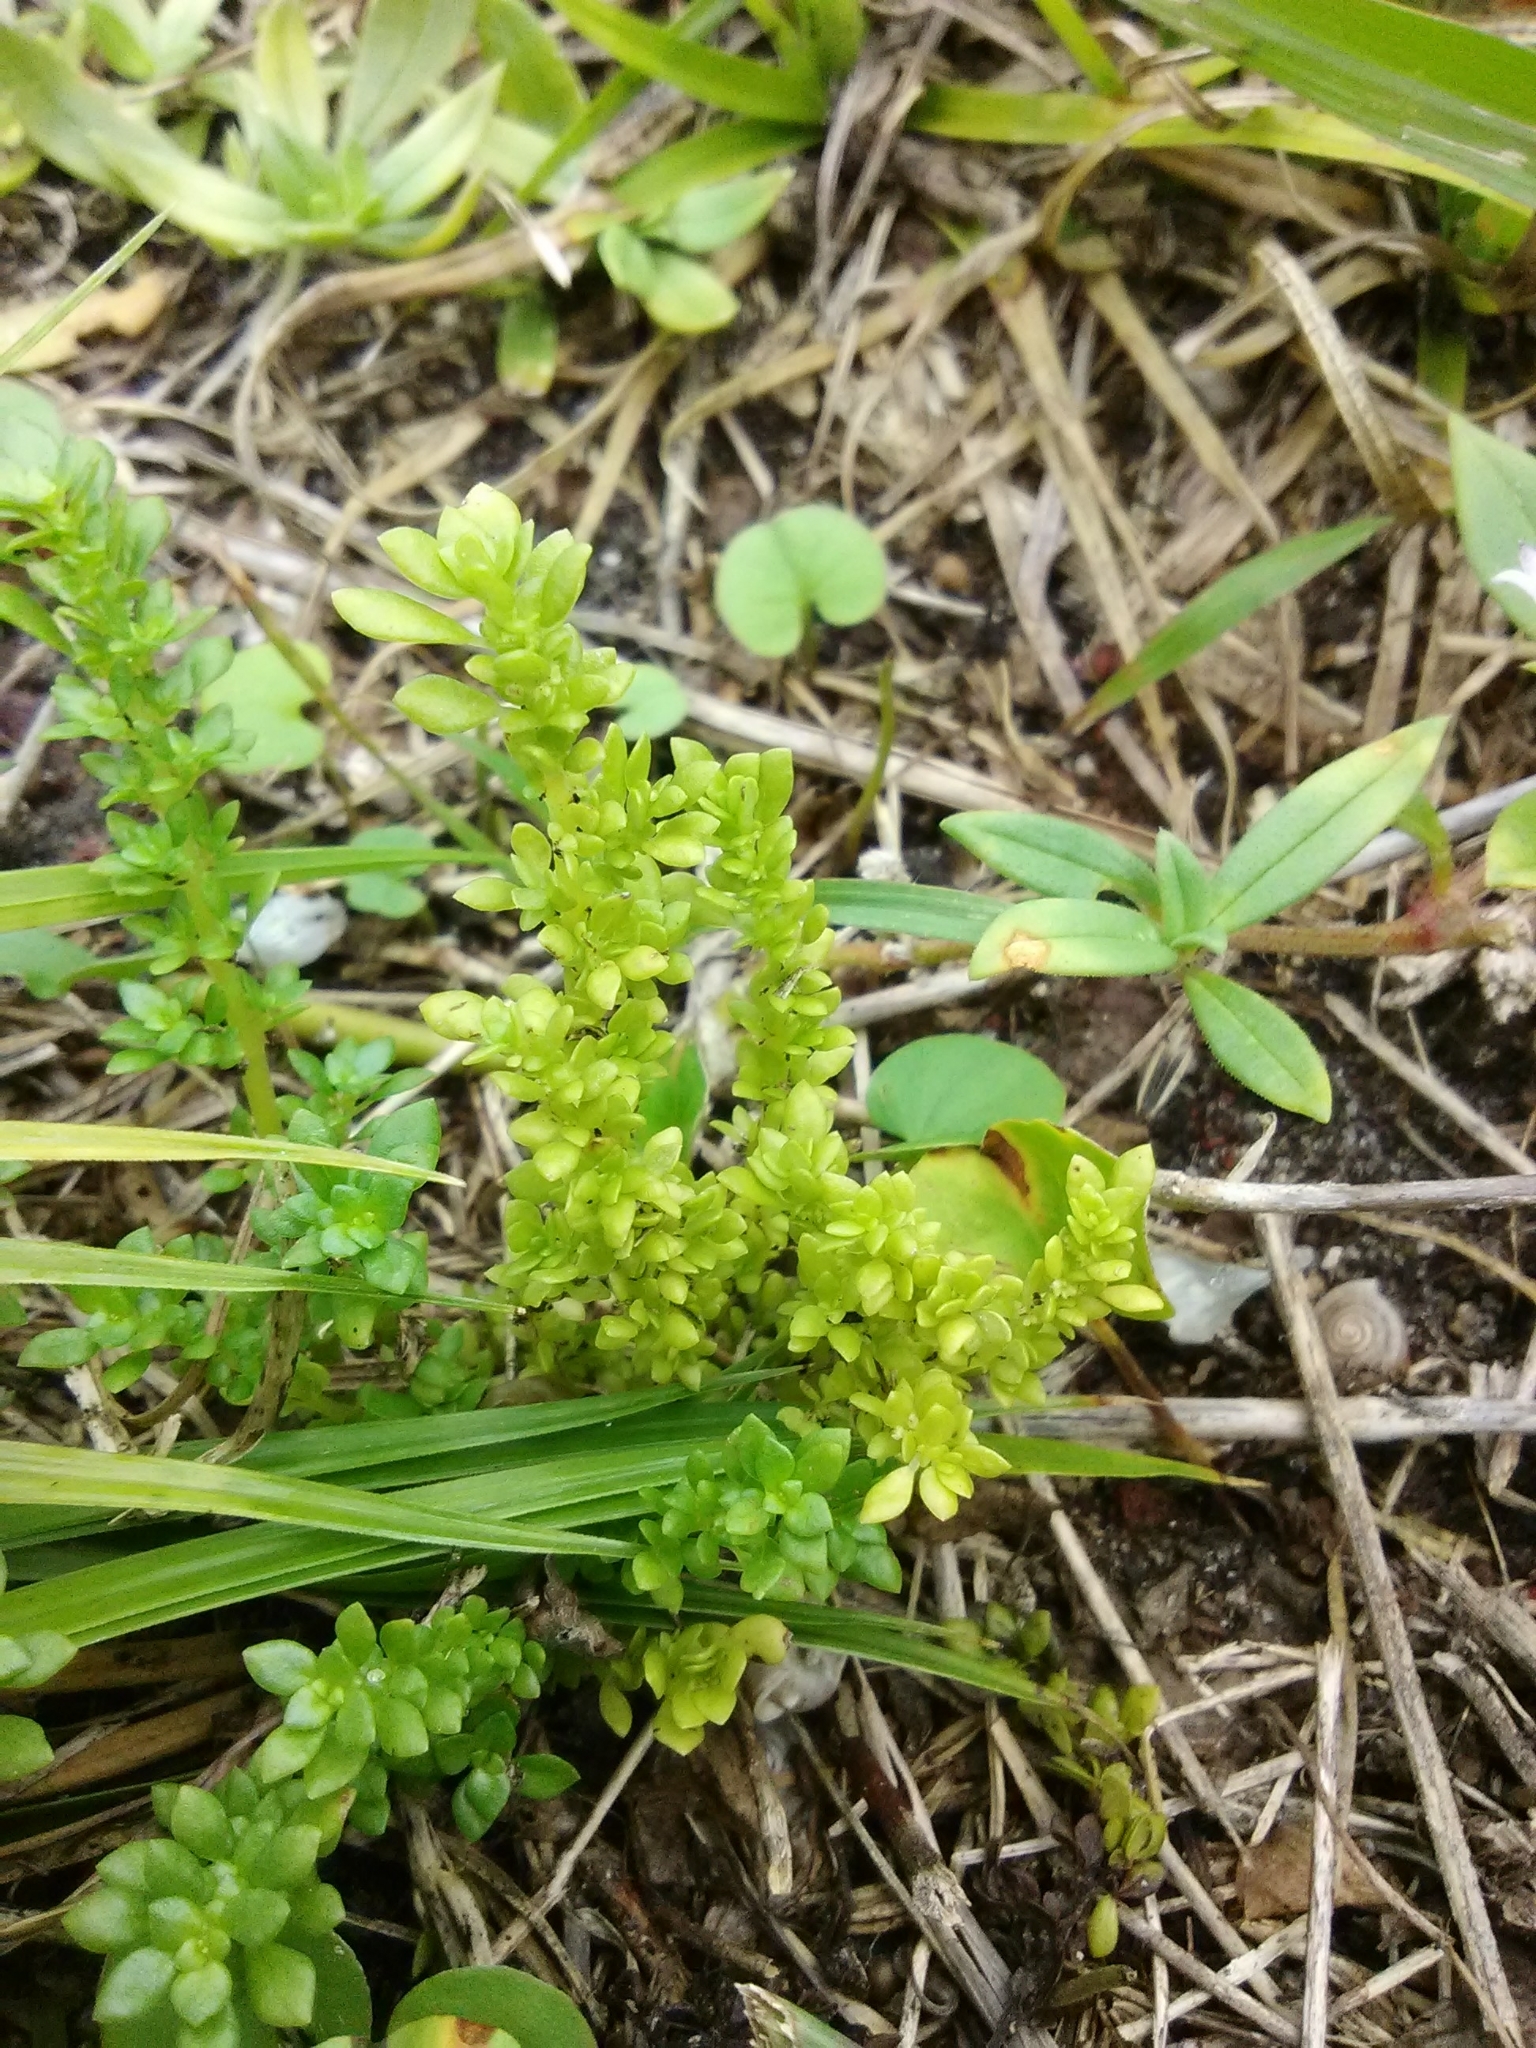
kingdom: Plantae
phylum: Tracheophyta
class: Magnoliopsida
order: Rosales
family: Urticaceae
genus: Pilea
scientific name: Pilea microphylla
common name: Artillery-plant
